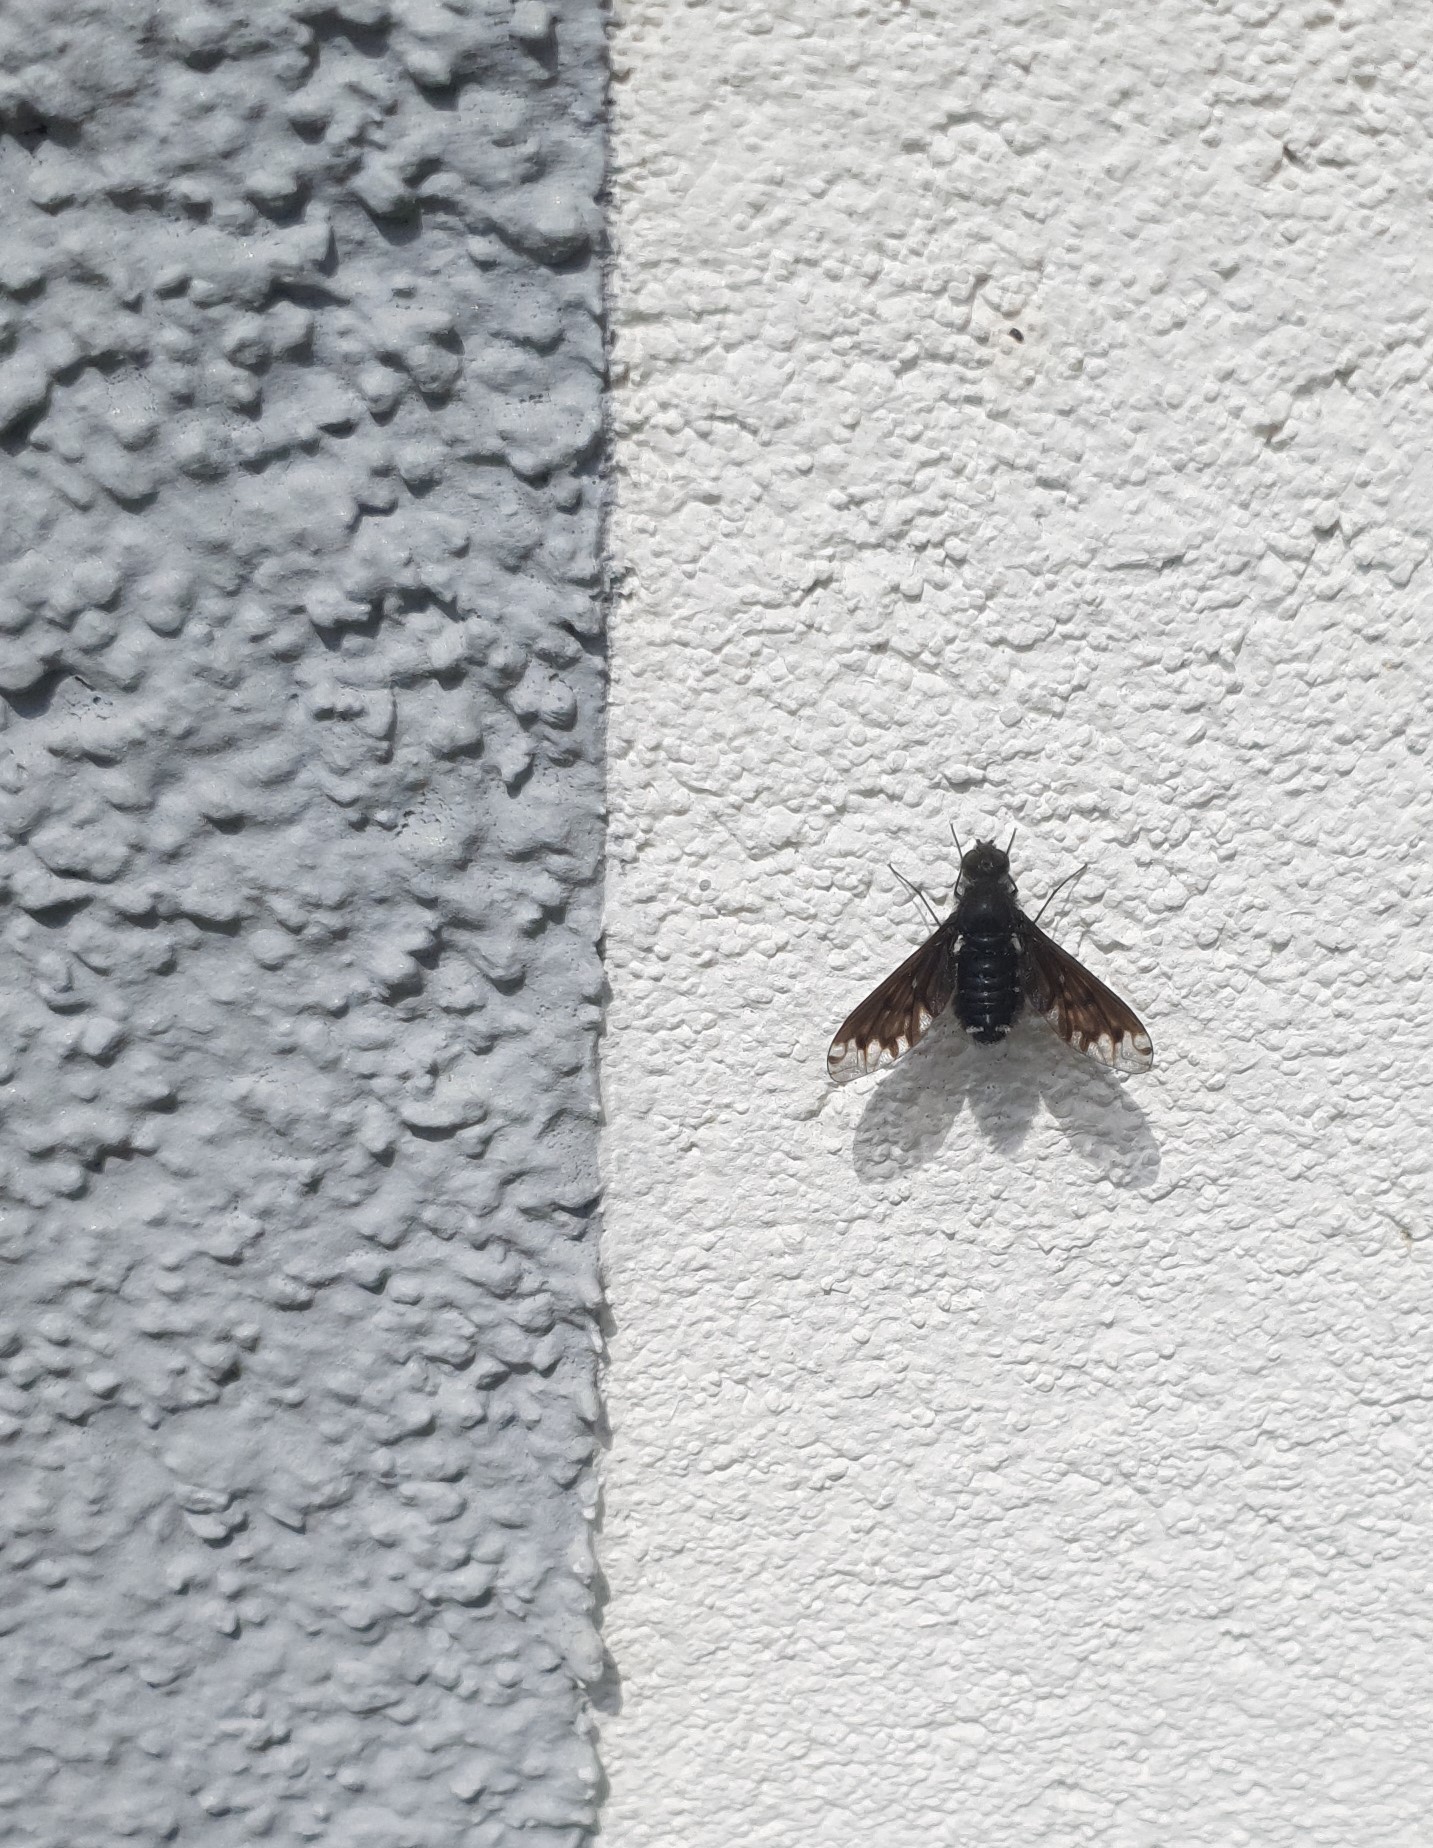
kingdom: Animalia
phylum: Arthropoda
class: Insecta
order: Diptera
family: Bombyliidae
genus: Anthrax
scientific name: Anthrax anthrax
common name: Anthracite bee-fly
